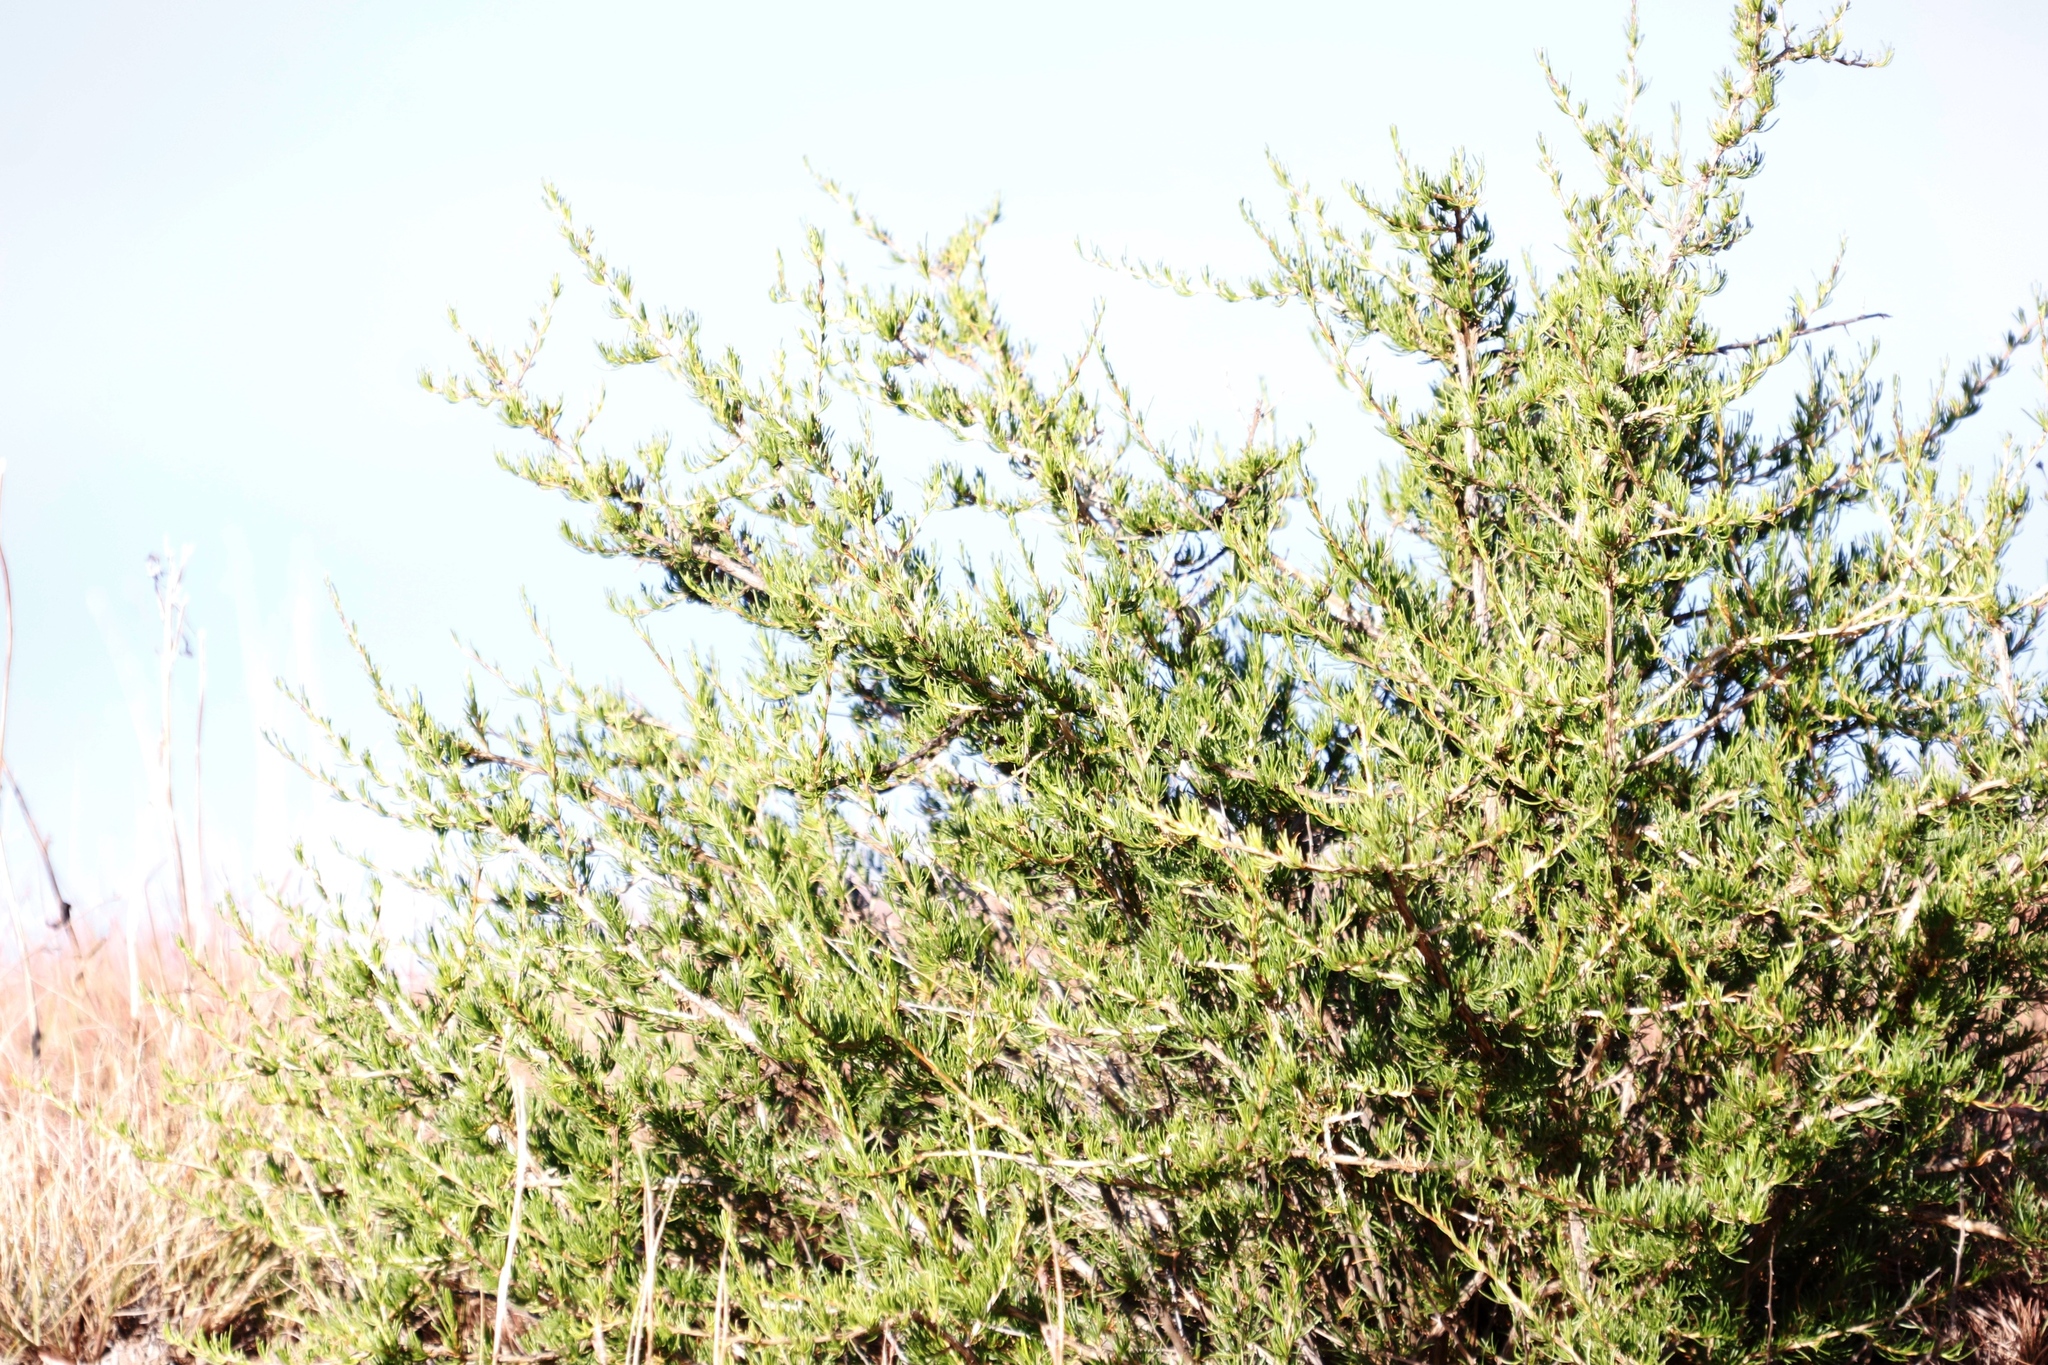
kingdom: Plantae
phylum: Tracheophyta
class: Magnoliopsida
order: Asterales
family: Asteraceae
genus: Felicia
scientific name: Felicia filifolia
